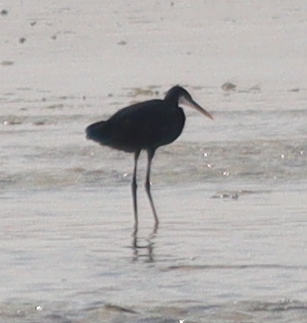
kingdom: Animalia
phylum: Chordata
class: Aves
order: Pelecaniformes
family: Ardeidae
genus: Egretta
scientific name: Egretta gularis
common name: Western reef-heron
